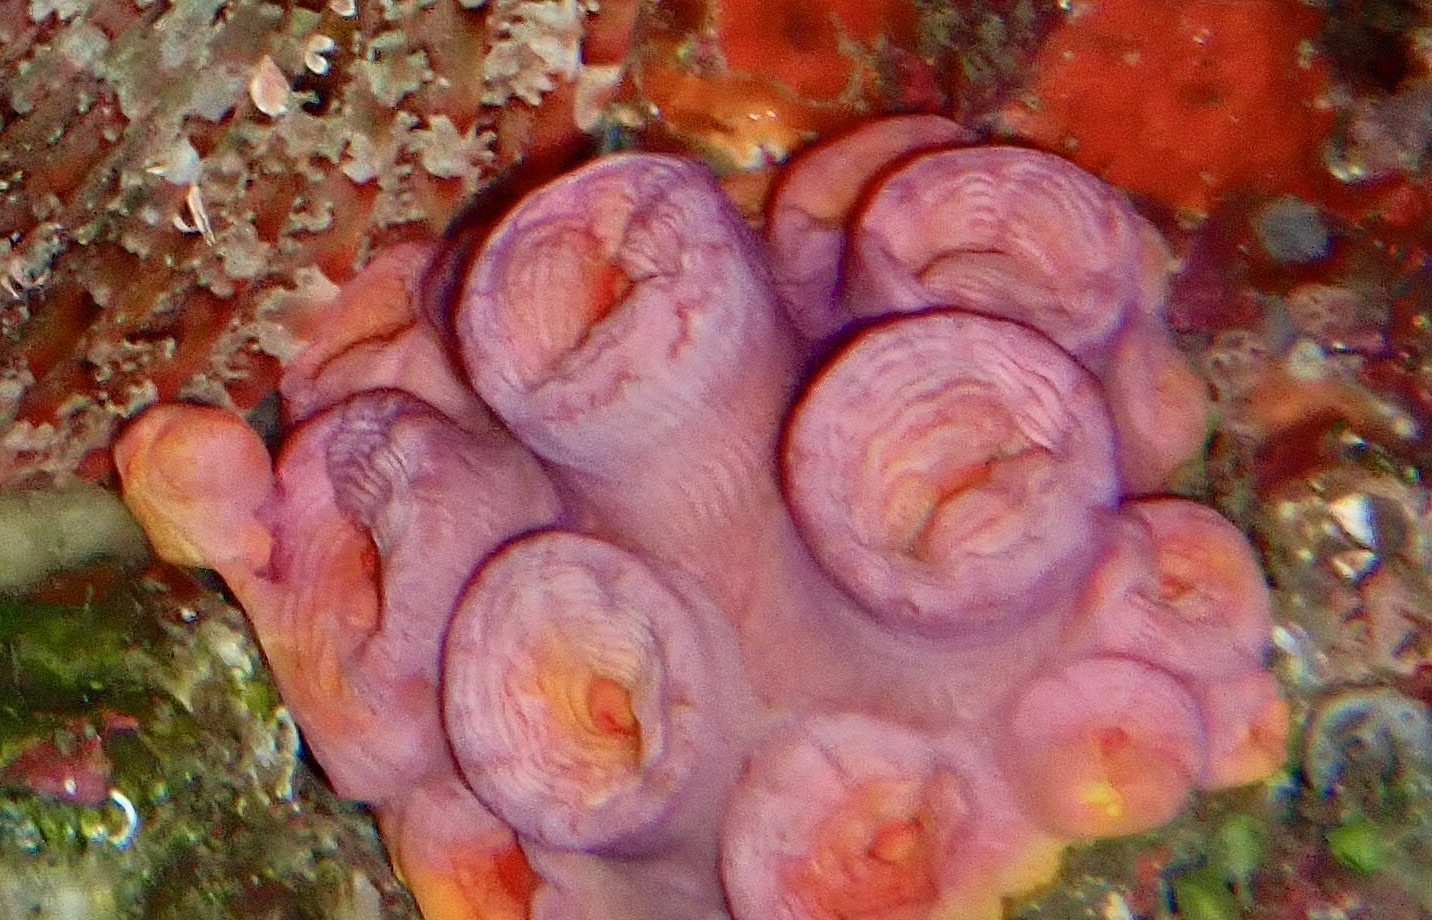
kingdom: Animalia
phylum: Cnidaria
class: Anthozoa
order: Scleractinia
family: Dendrophylliidae
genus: Tubastraea
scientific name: Tubastraea coccinea
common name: Orange cup coral
